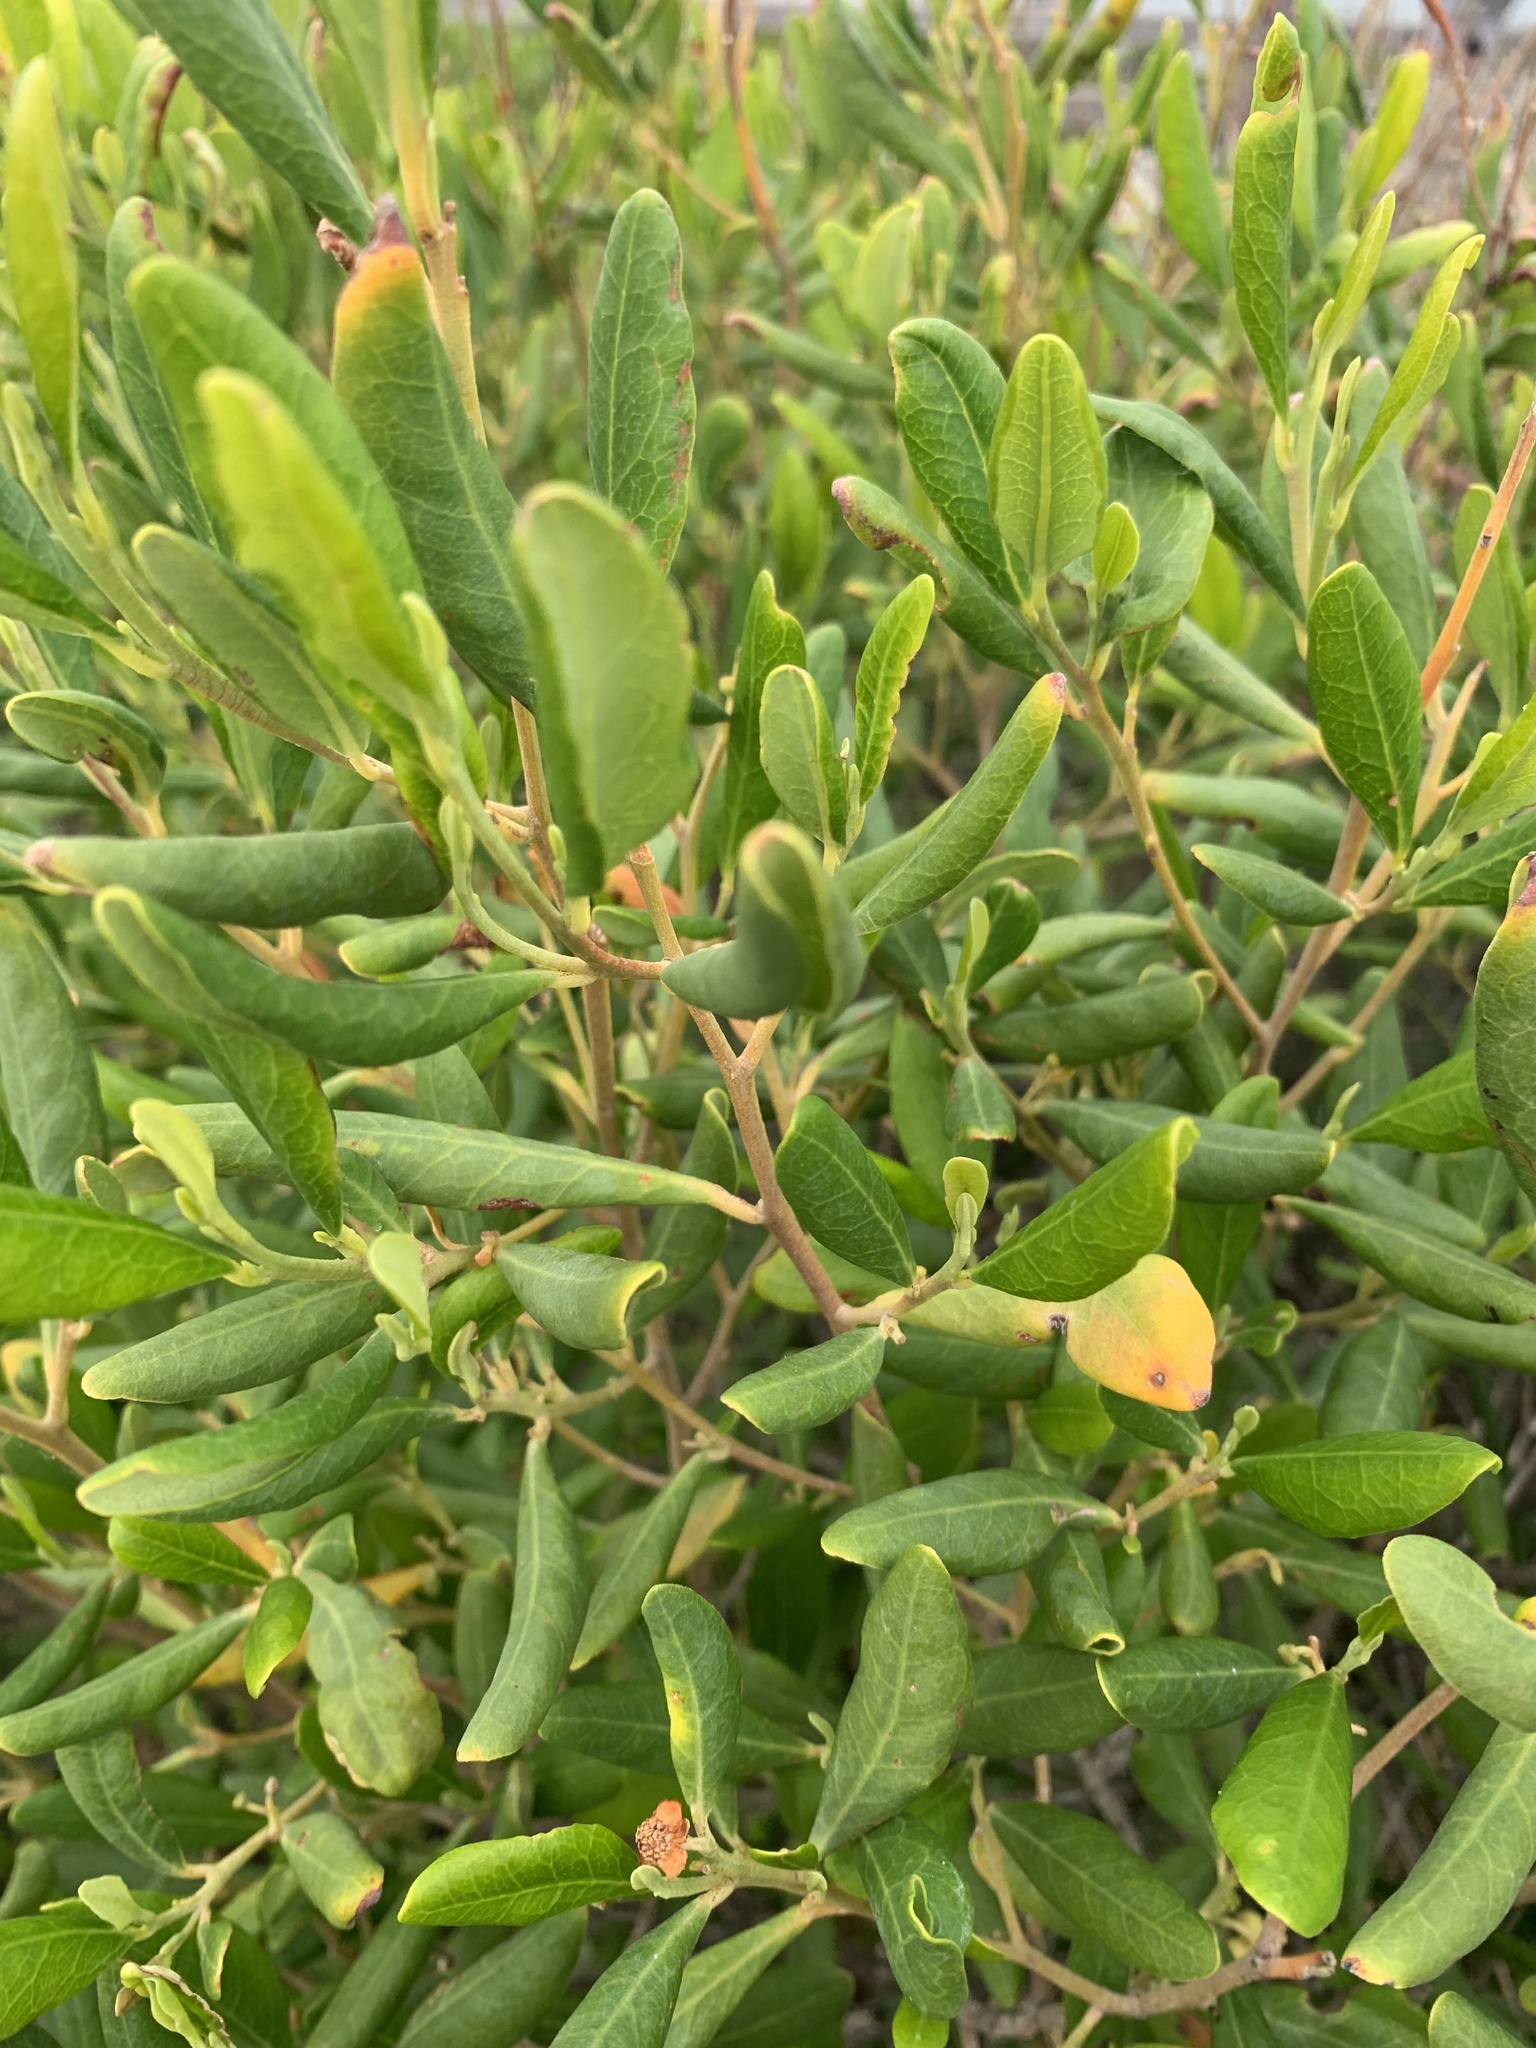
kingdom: Plantae
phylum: Tracheophyta
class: Magnoliopsida
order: Malpighiales
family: Euphorbiaceae
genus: Beyeria
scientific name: Beyeria viscosa
